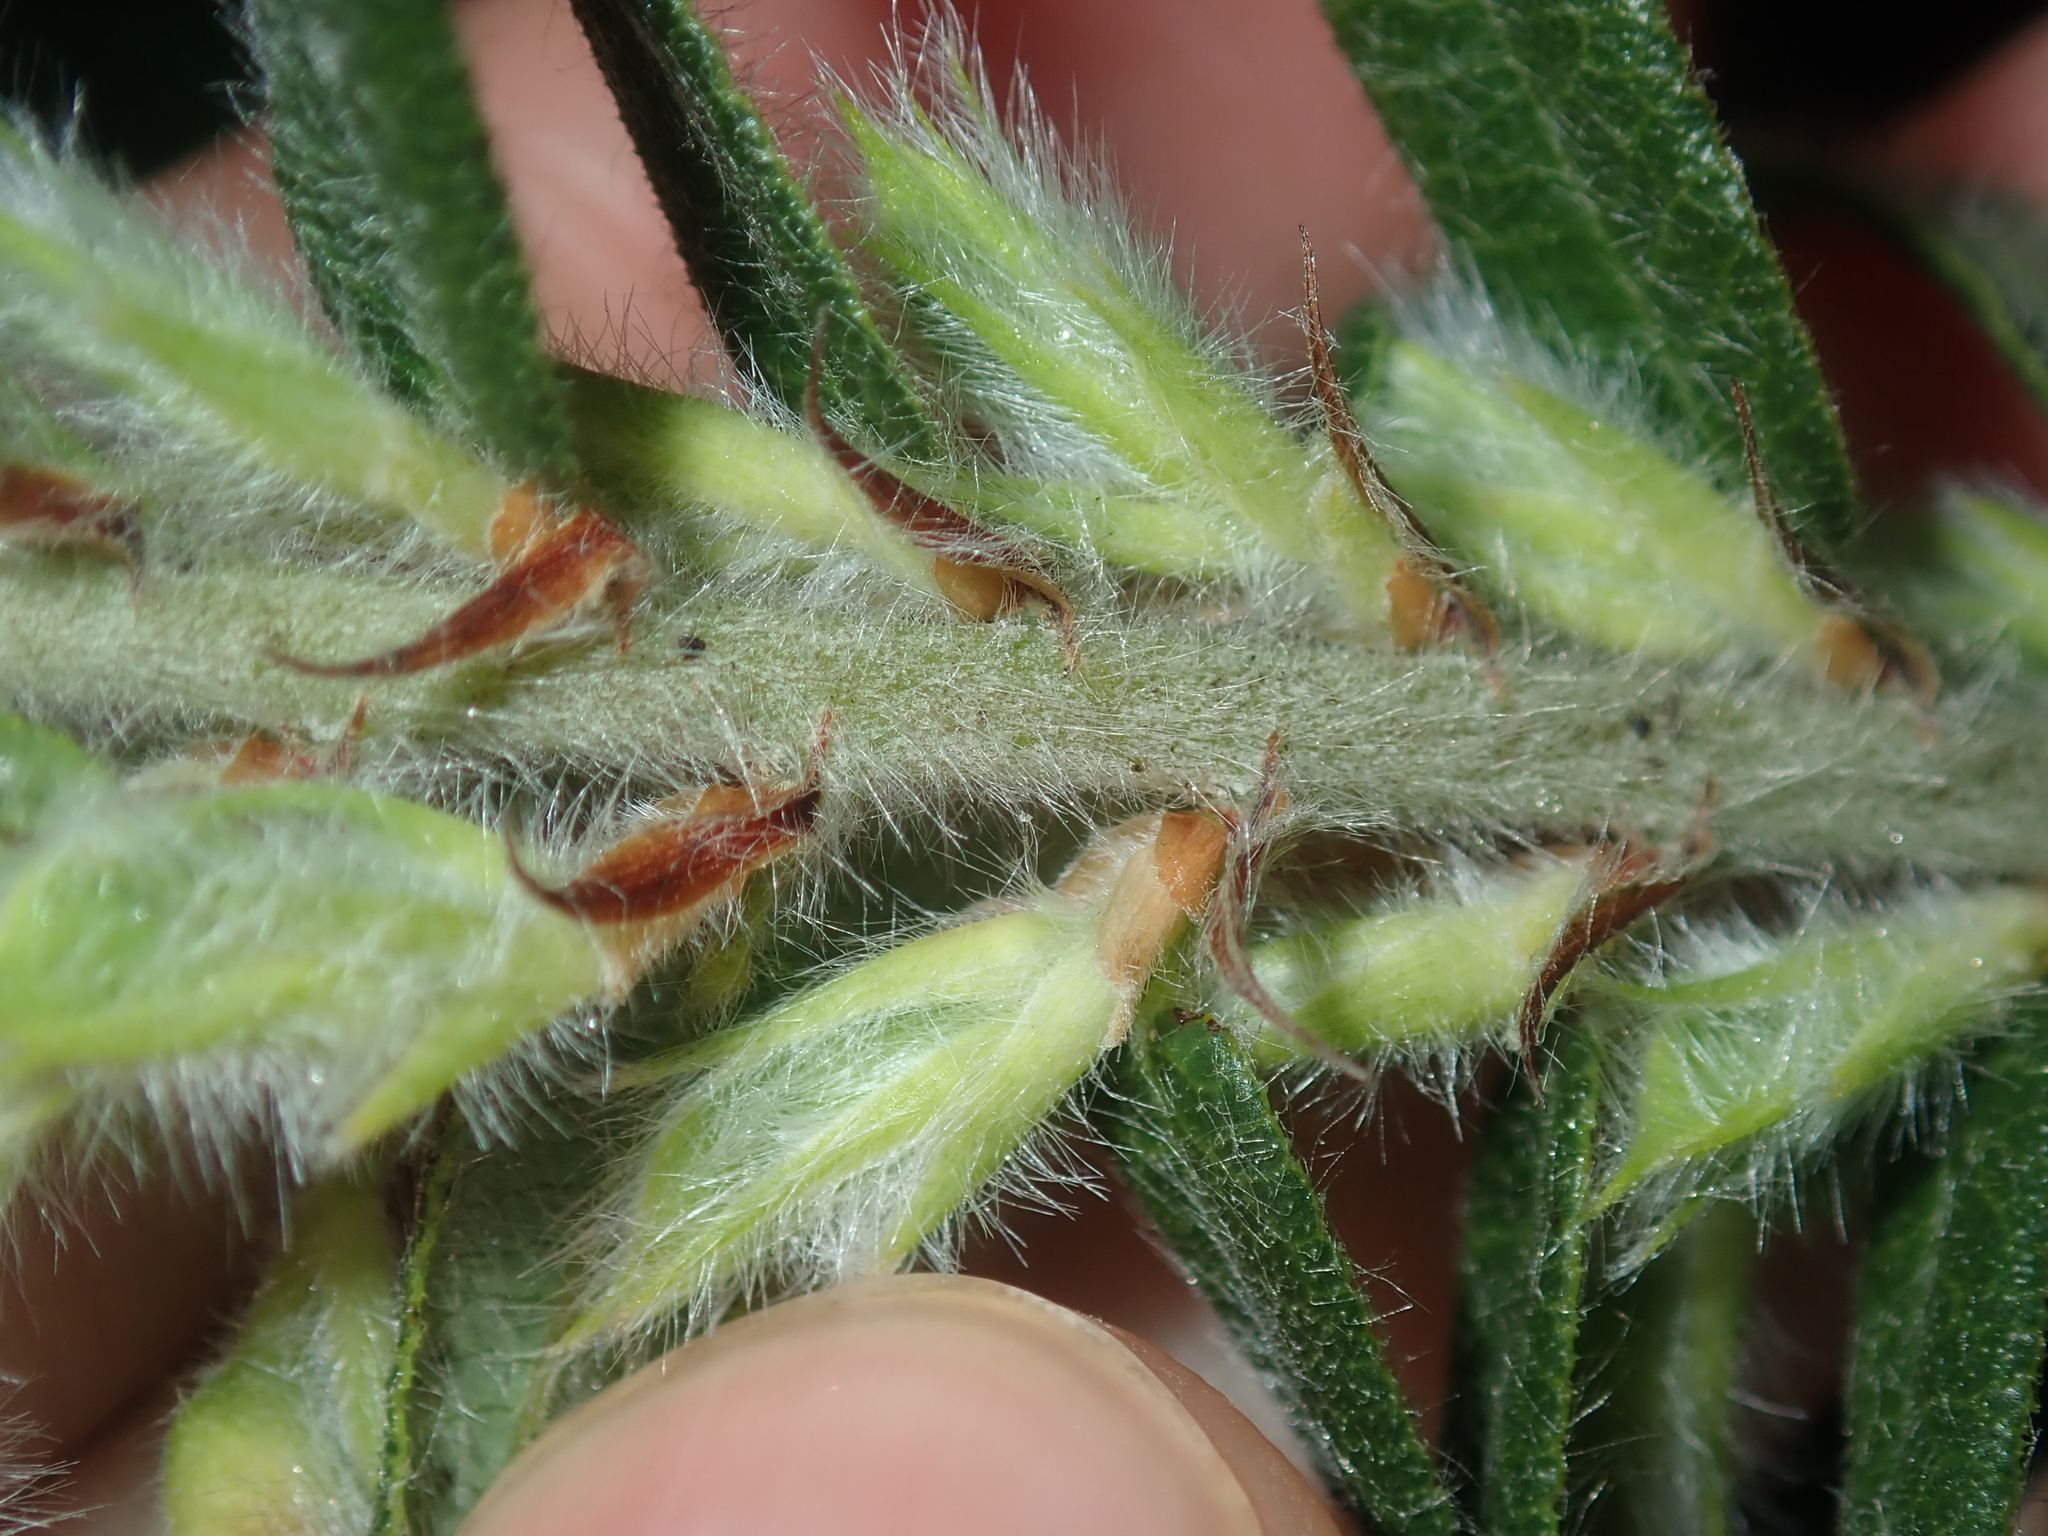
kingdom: Plantae
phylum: Tracheophyta
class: Magnoliopsida
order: Fabales
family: Fabaceae
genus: Bossiaea
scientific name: Bossiaea eriocarpa
